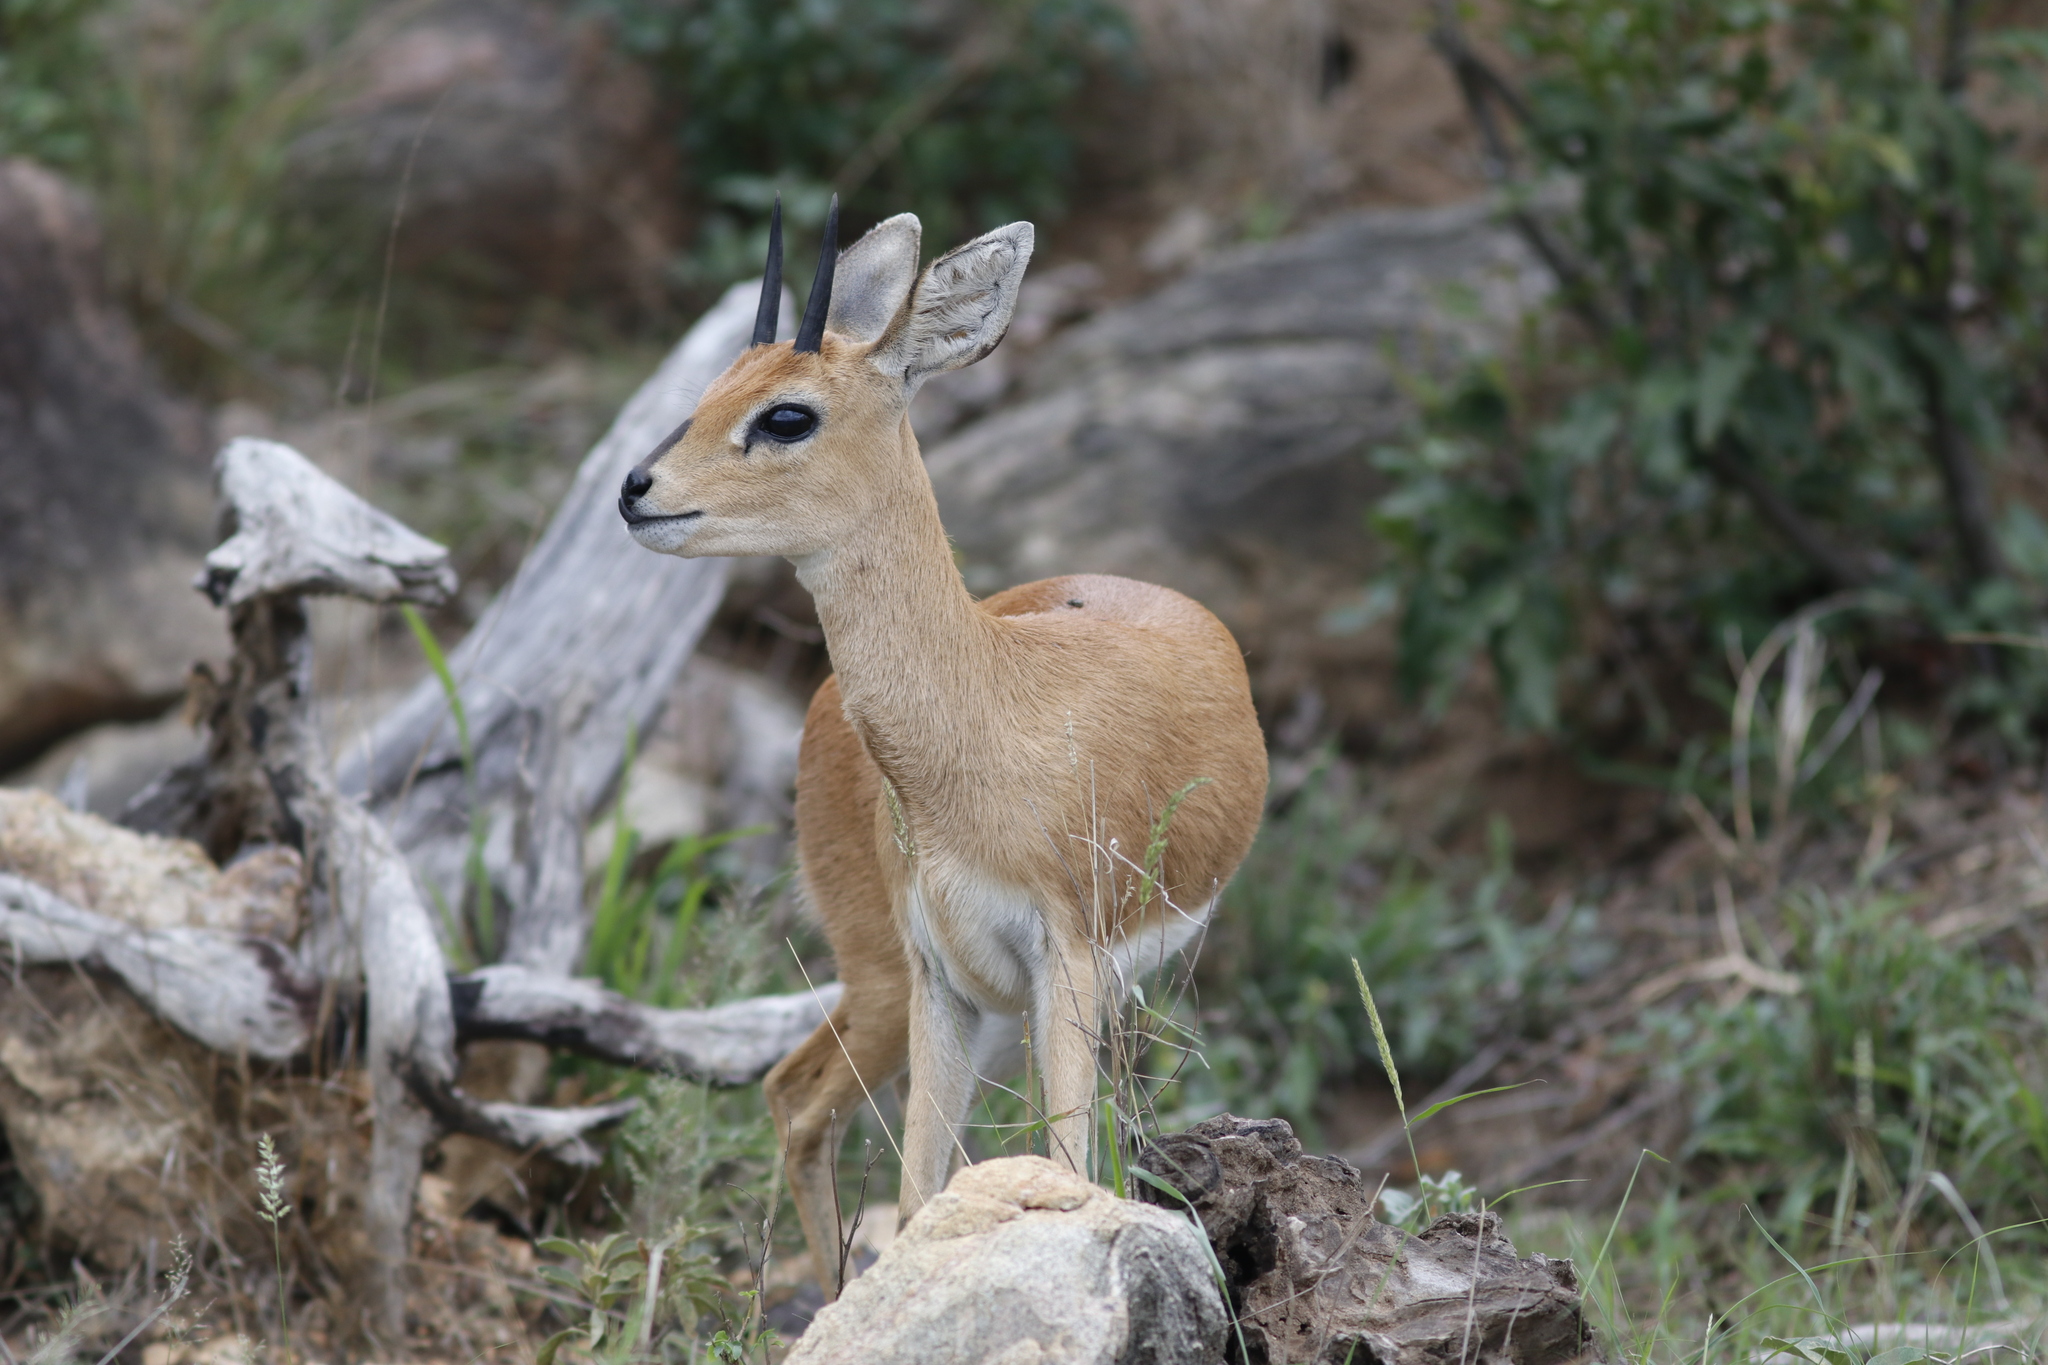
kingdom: Animalia
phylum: Chordata
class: Mammalia
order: Artiodactyla
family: Bovidae
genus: Raphicerus
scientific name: Raphicerus campestris
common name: Steenbok
